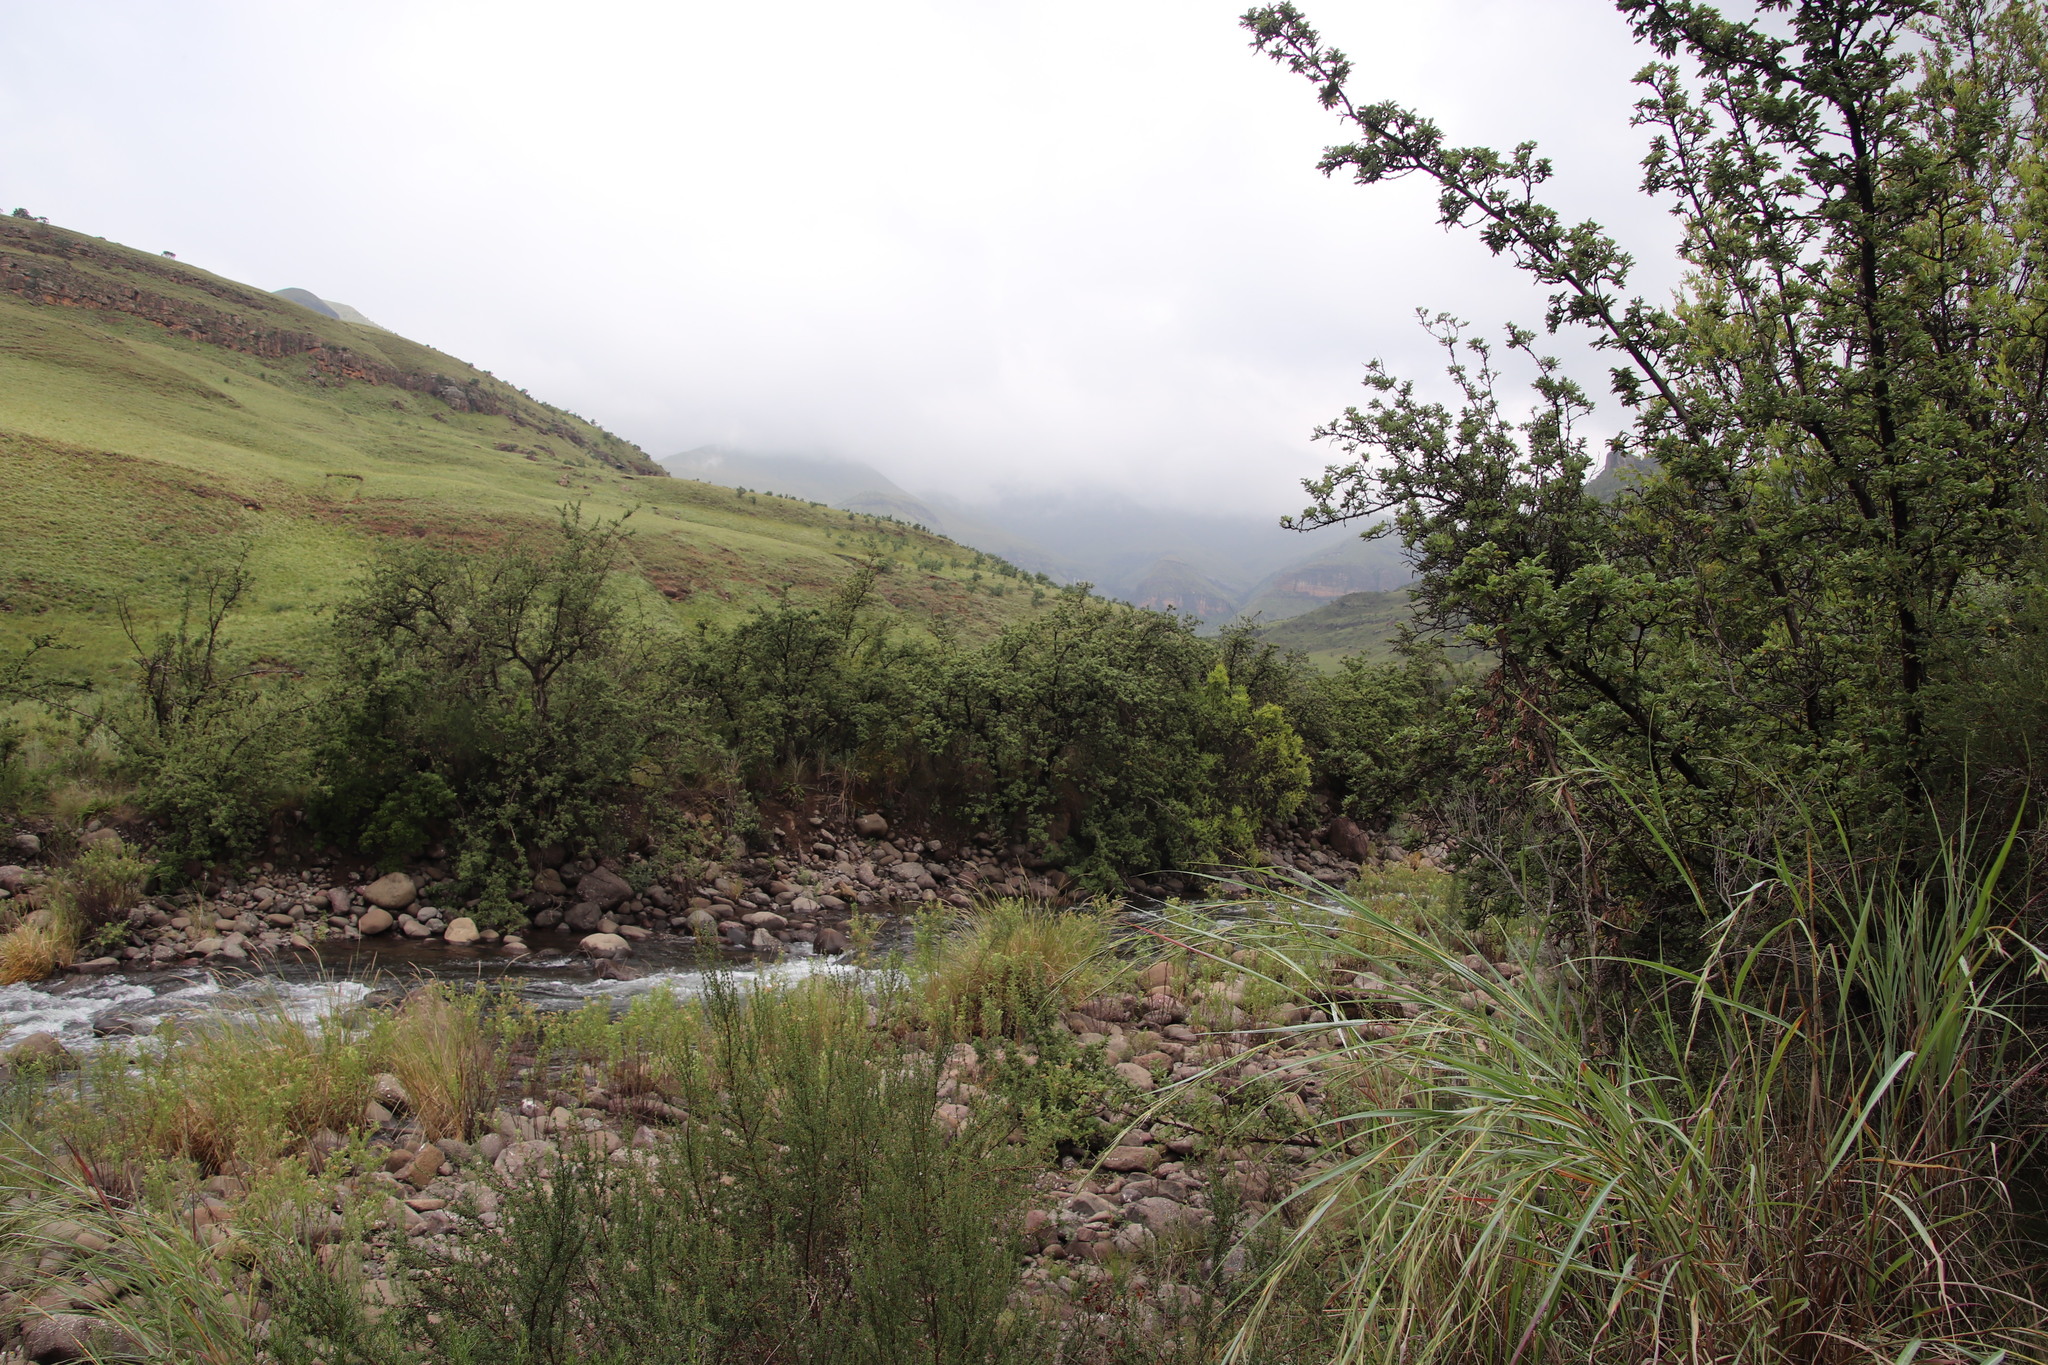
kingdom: Plantae
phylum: Tracheophyta
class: Magnoliopsida
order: Rosales
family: Rosaceae
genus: Leucosidea
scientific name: Leucosidea sericea
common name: Oldwood
